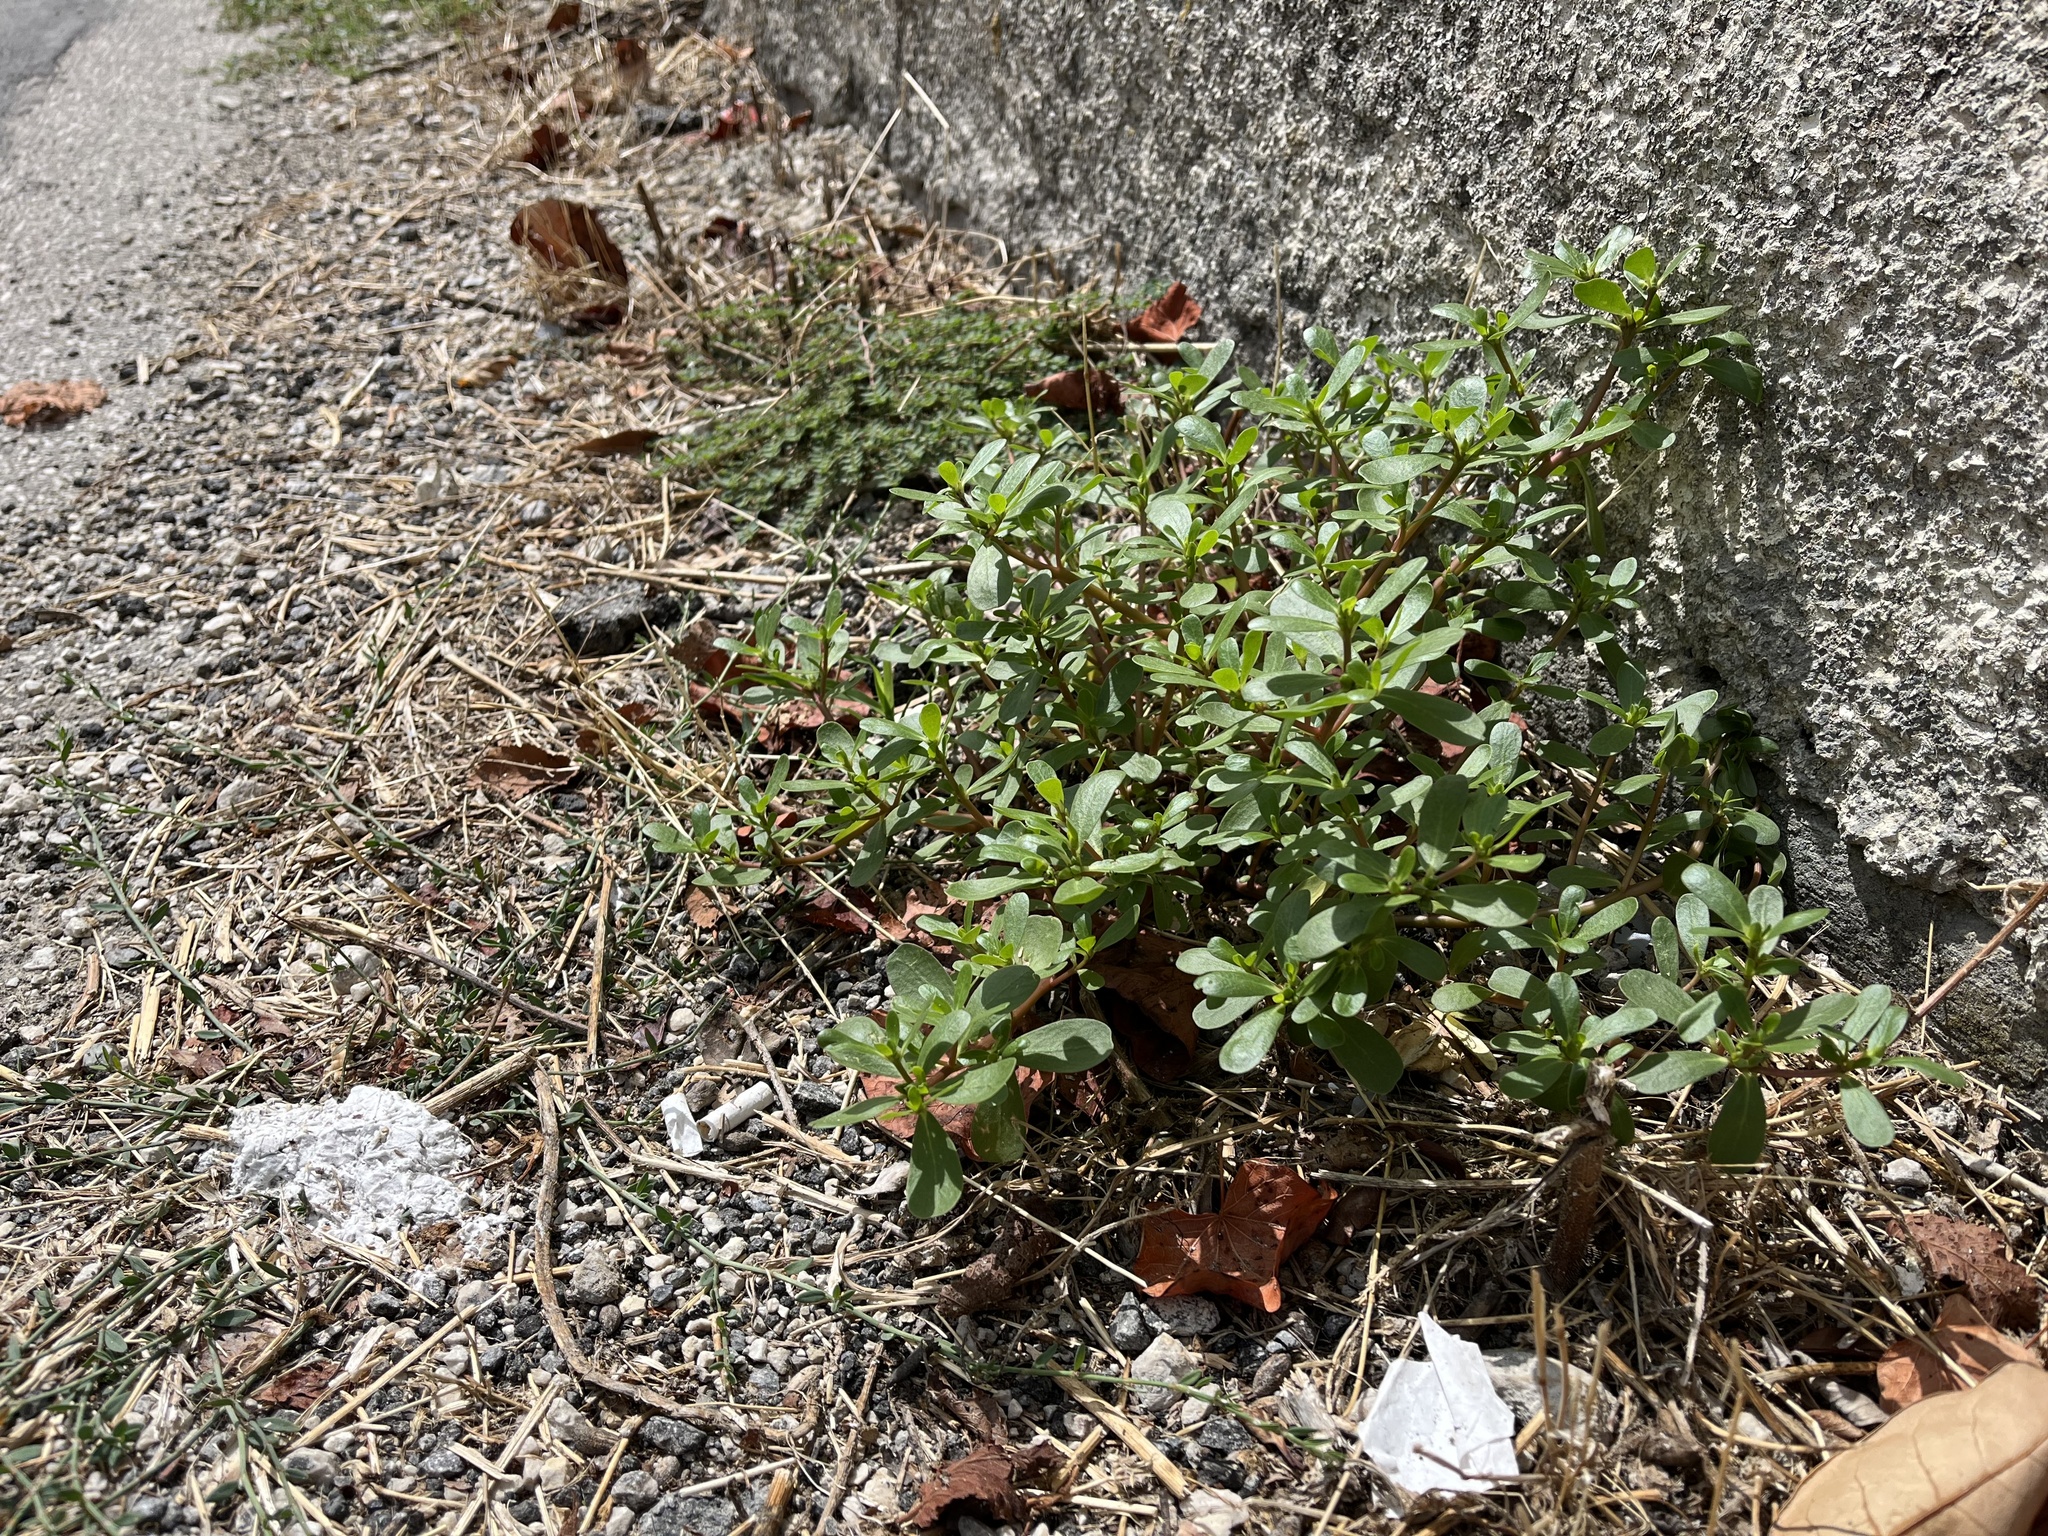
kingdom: Plantae
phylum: Tracheophyta
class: Magnoliopsida
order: Caryophyllales
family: Portulacaceae
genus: Portulaca
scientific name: Portulaca oleracea
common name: Common purslane
